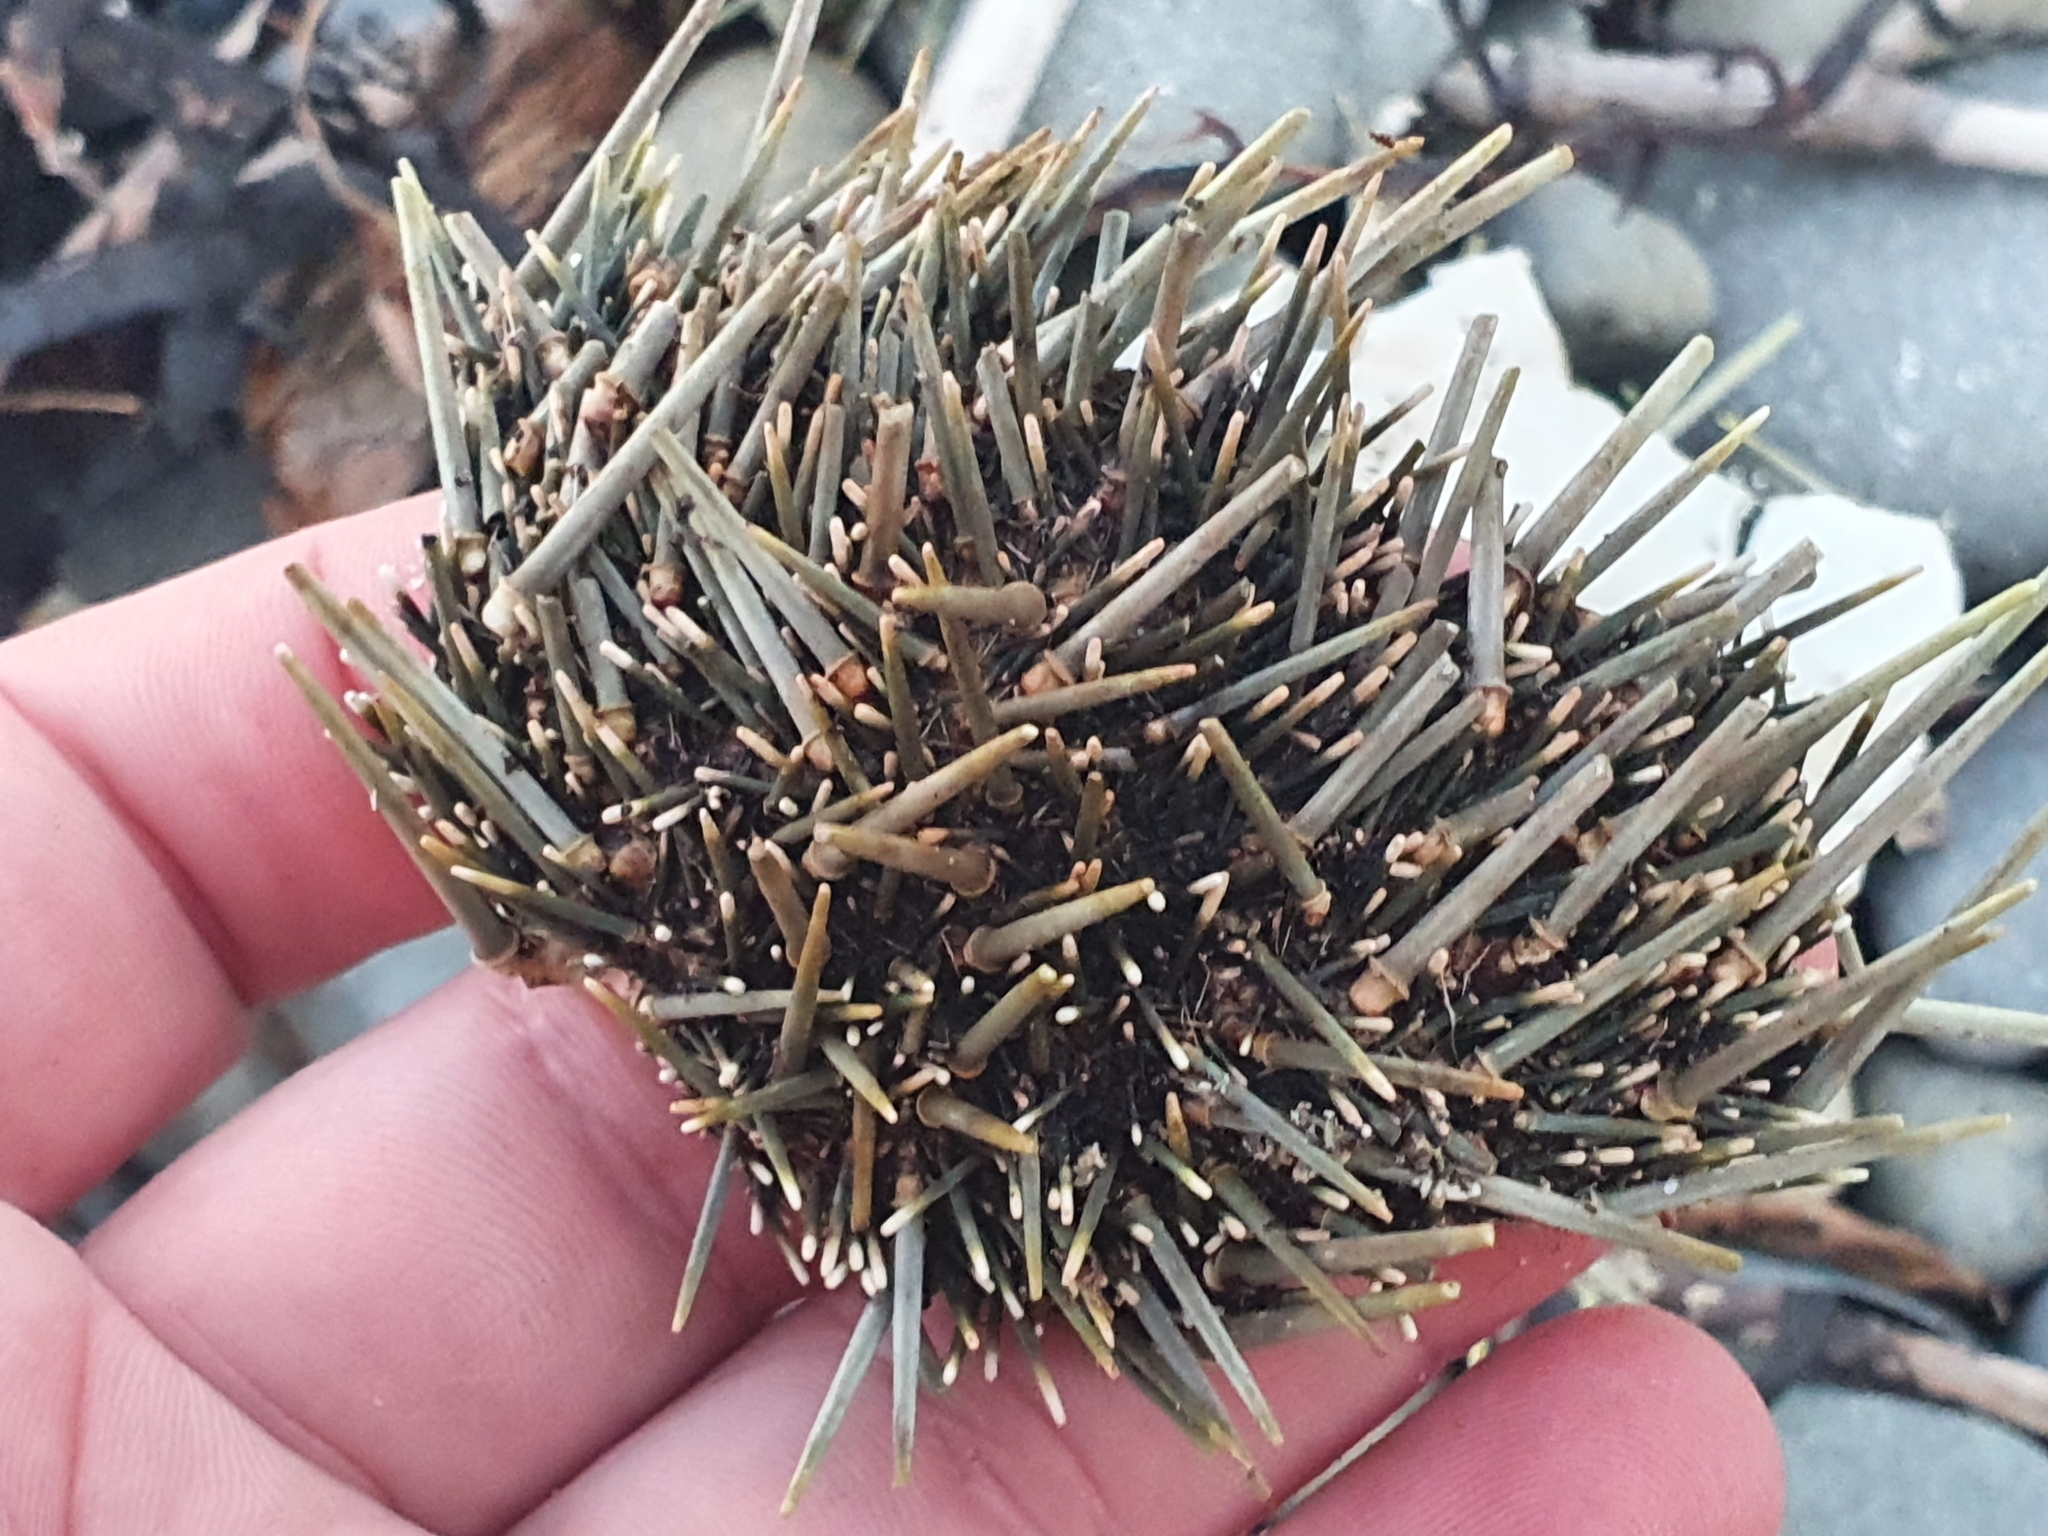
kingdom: Animalia
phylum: Echinodermata
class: Echinoidea
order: Camarodonta
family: Echinometridae
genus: Evechinus
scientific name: Evechinus chloroticus
